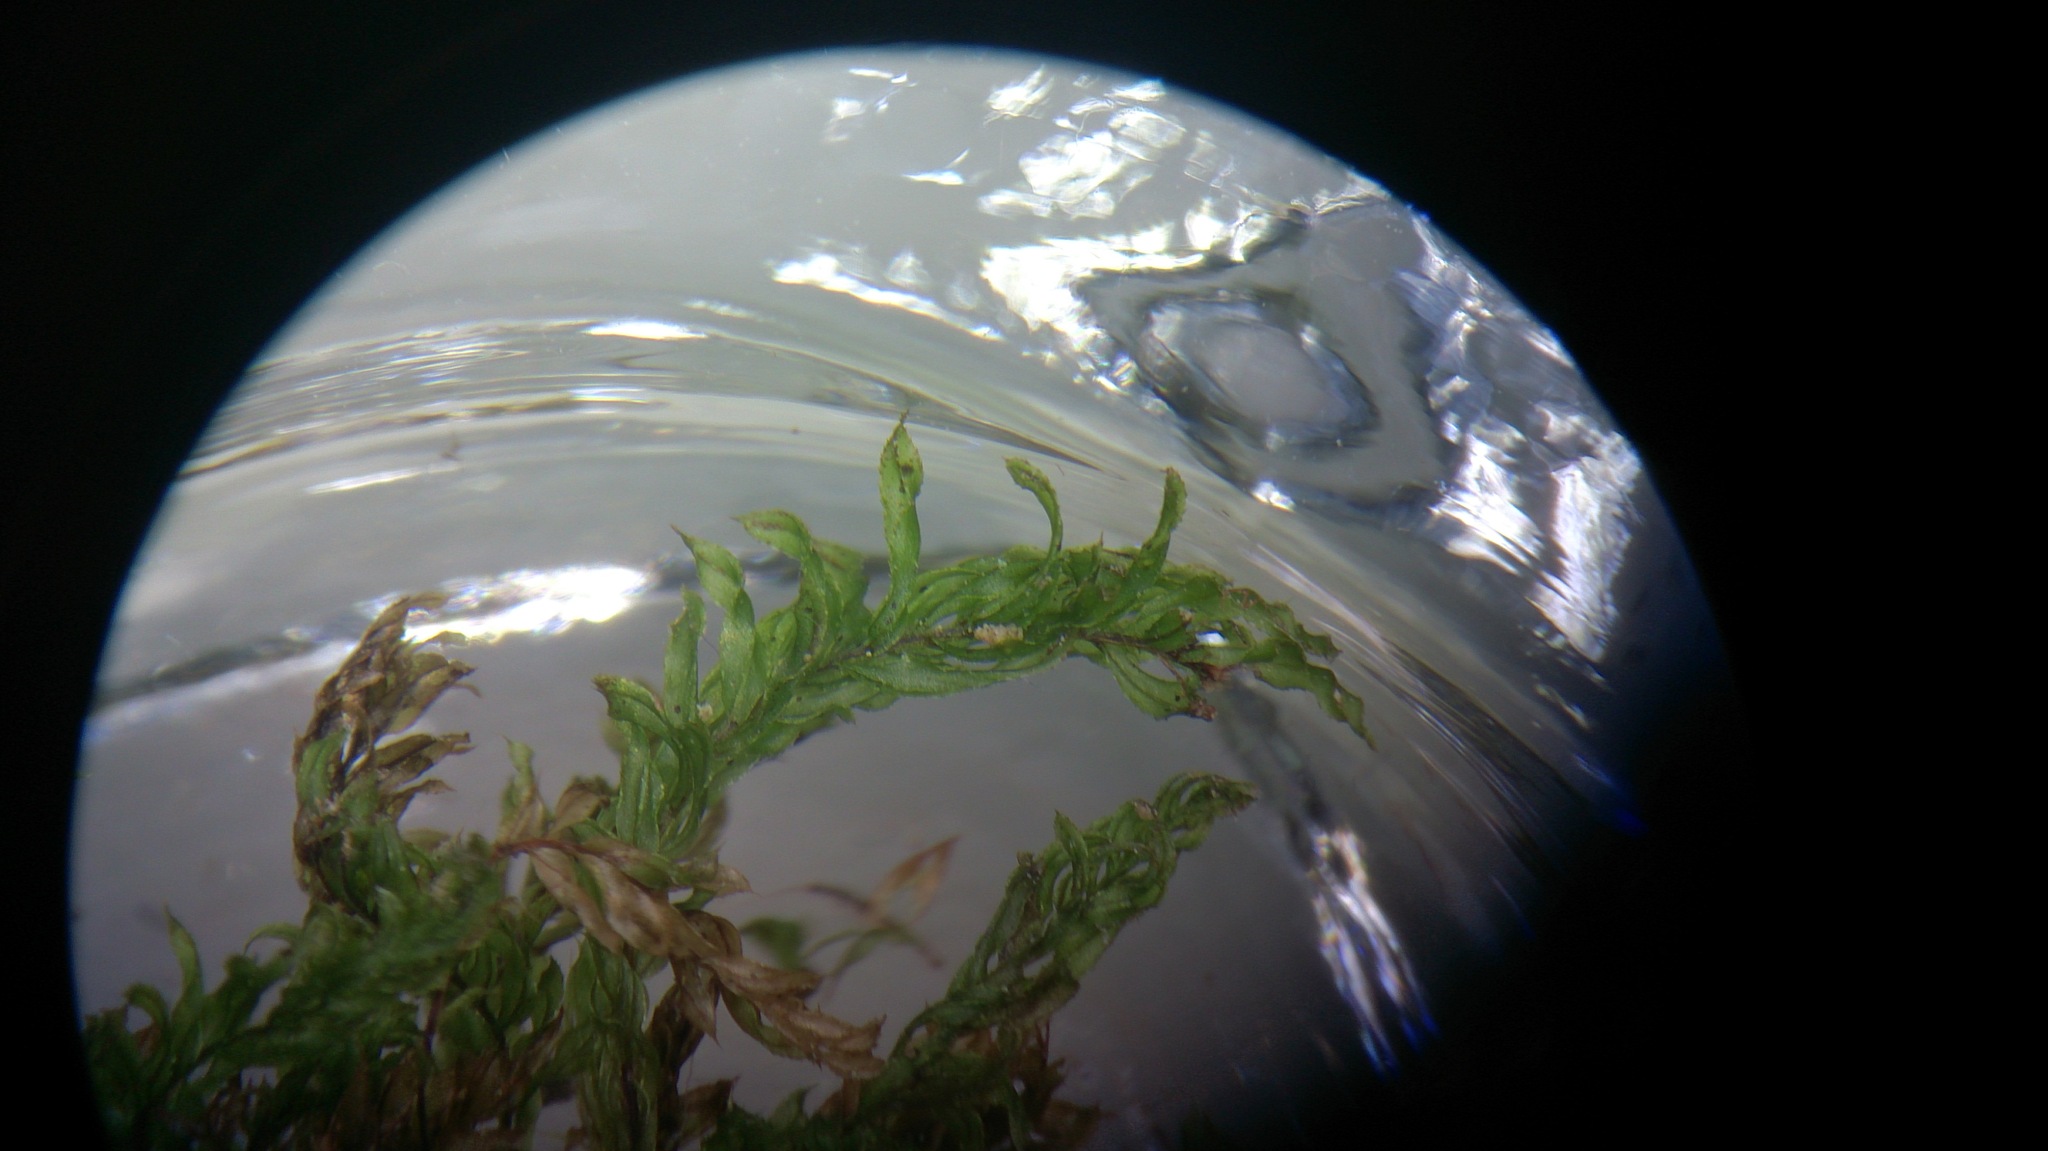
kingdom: Plantae
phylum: Bryophyta
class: Bryopsida
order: Bryales
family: Mniaceae
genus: Mnium
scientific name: Mnium hornum
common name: Swan's-neck leafy moss
